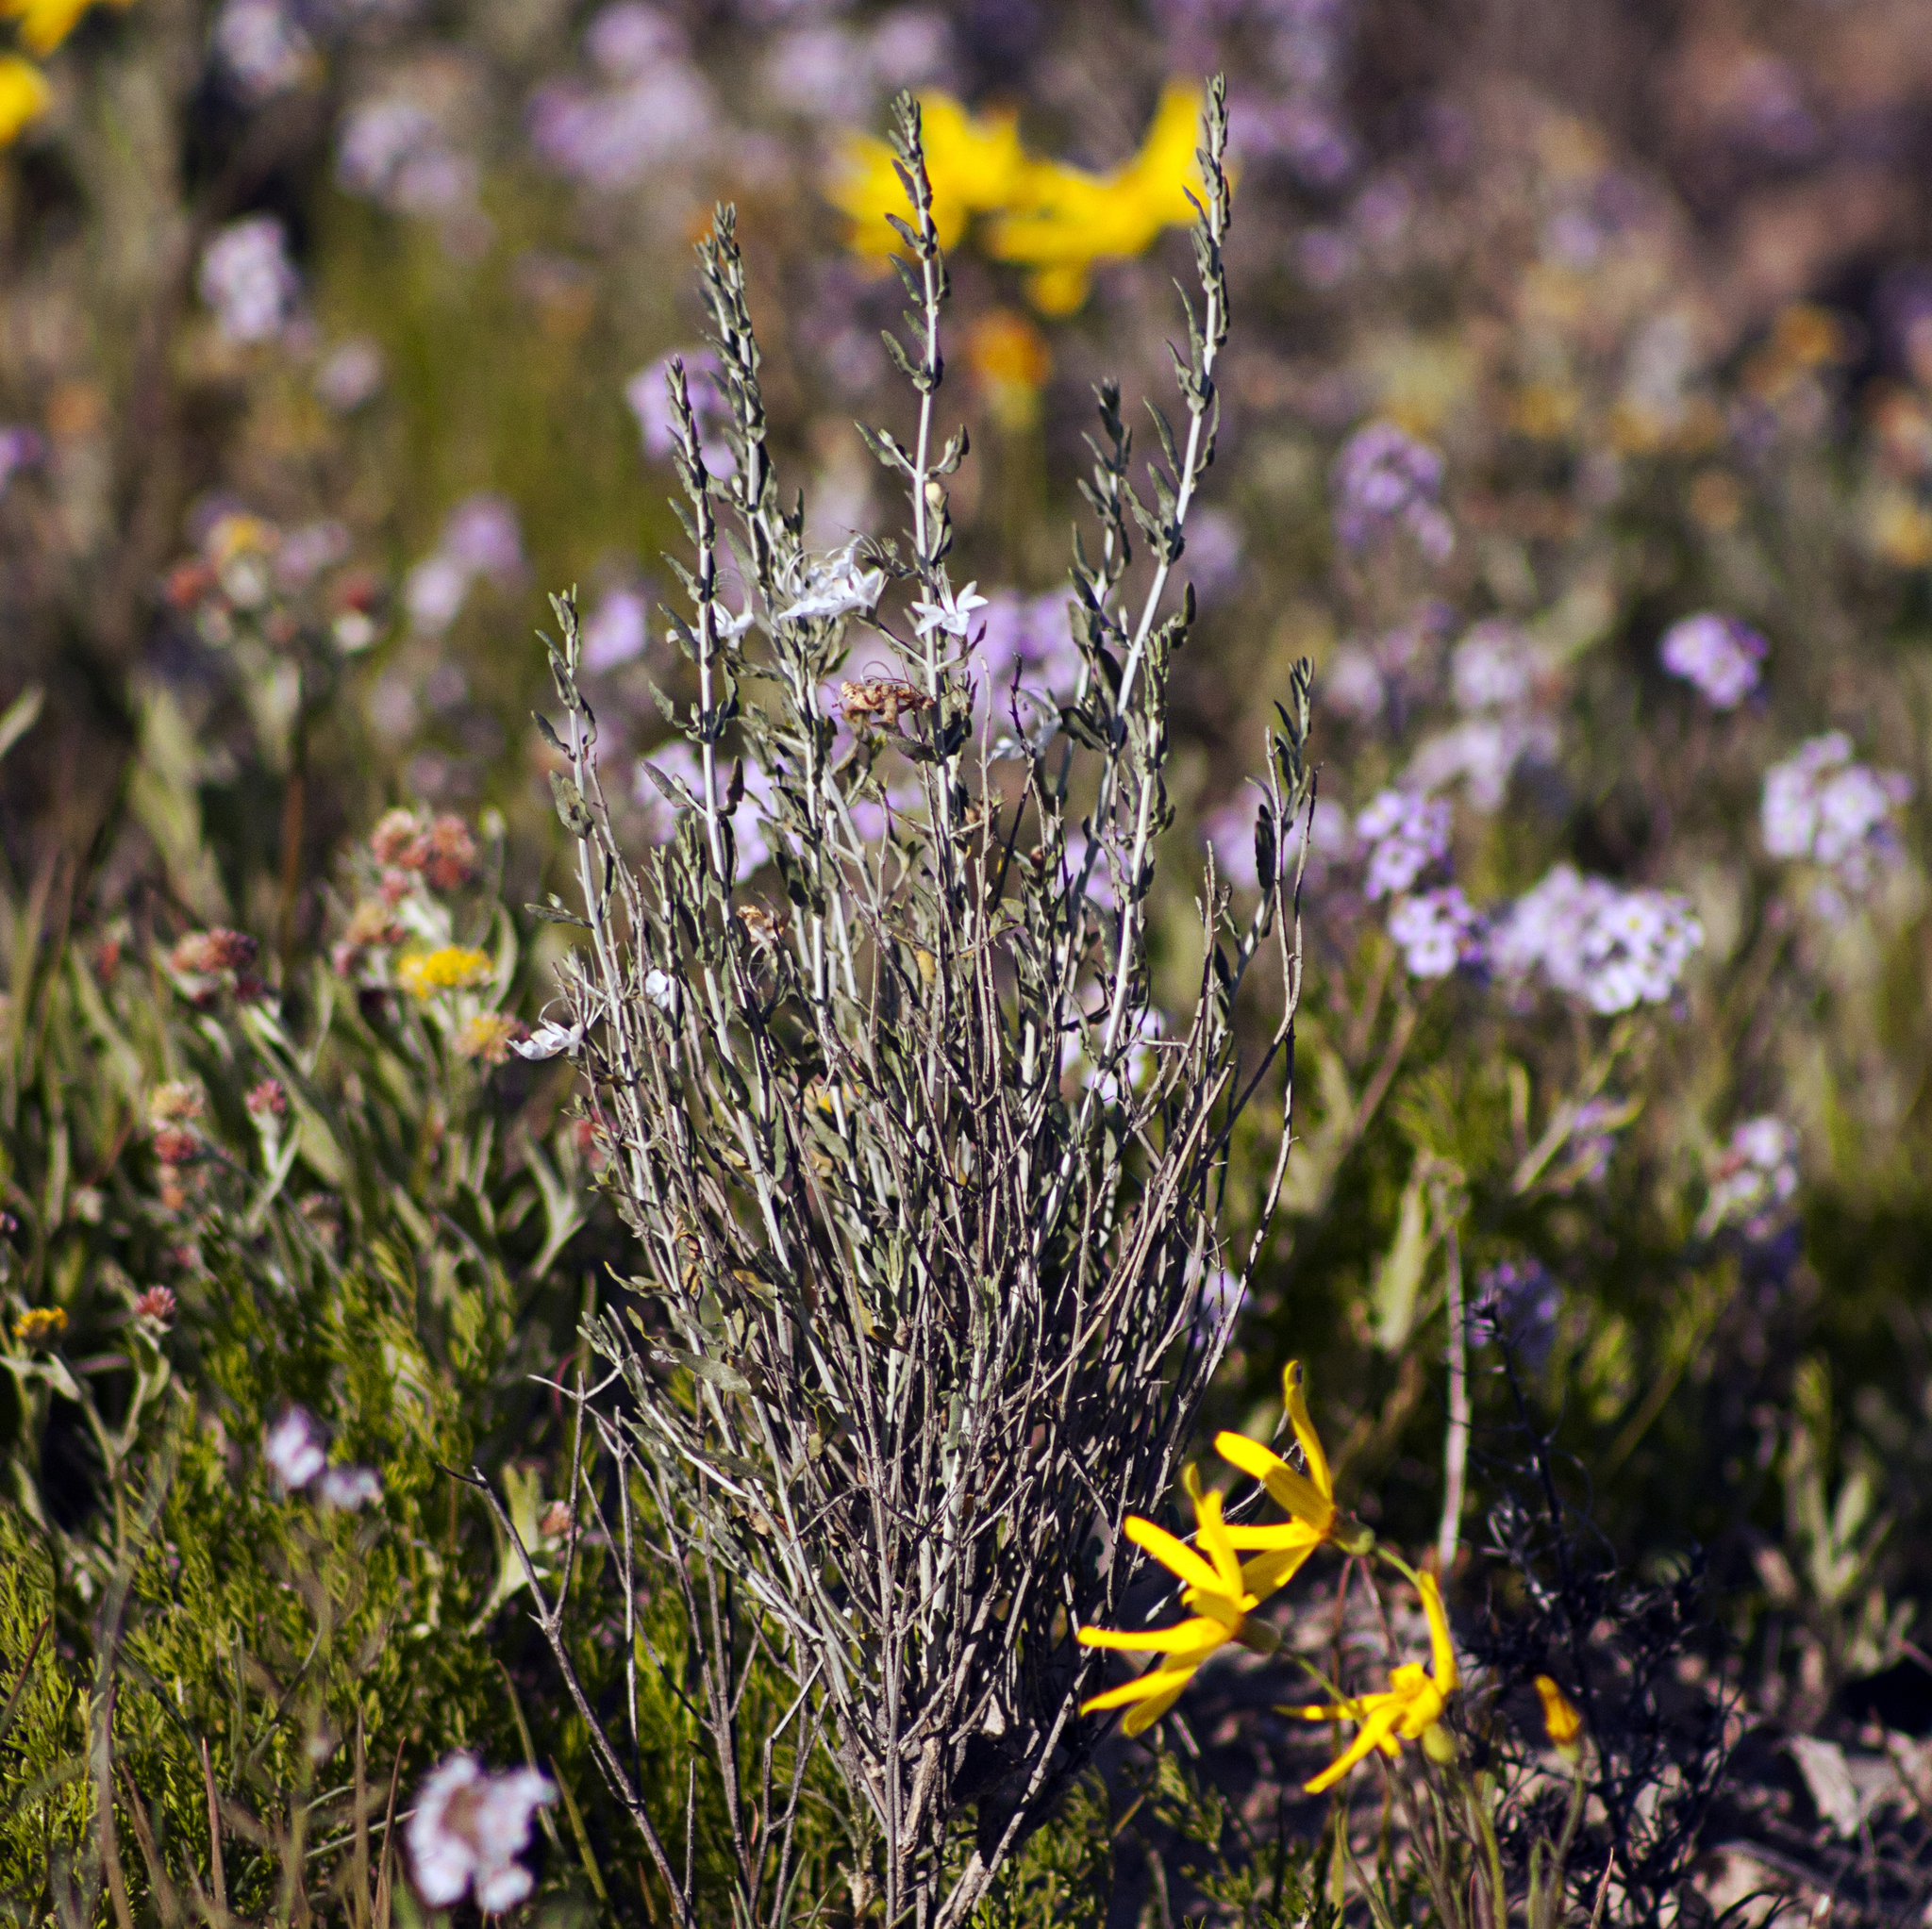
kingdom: Plantae
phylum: Tracheophyta
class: Magnoliopsida
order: Lamiales
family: Lamiaceae
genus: Teucrium
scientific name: Teucrium racemosum
